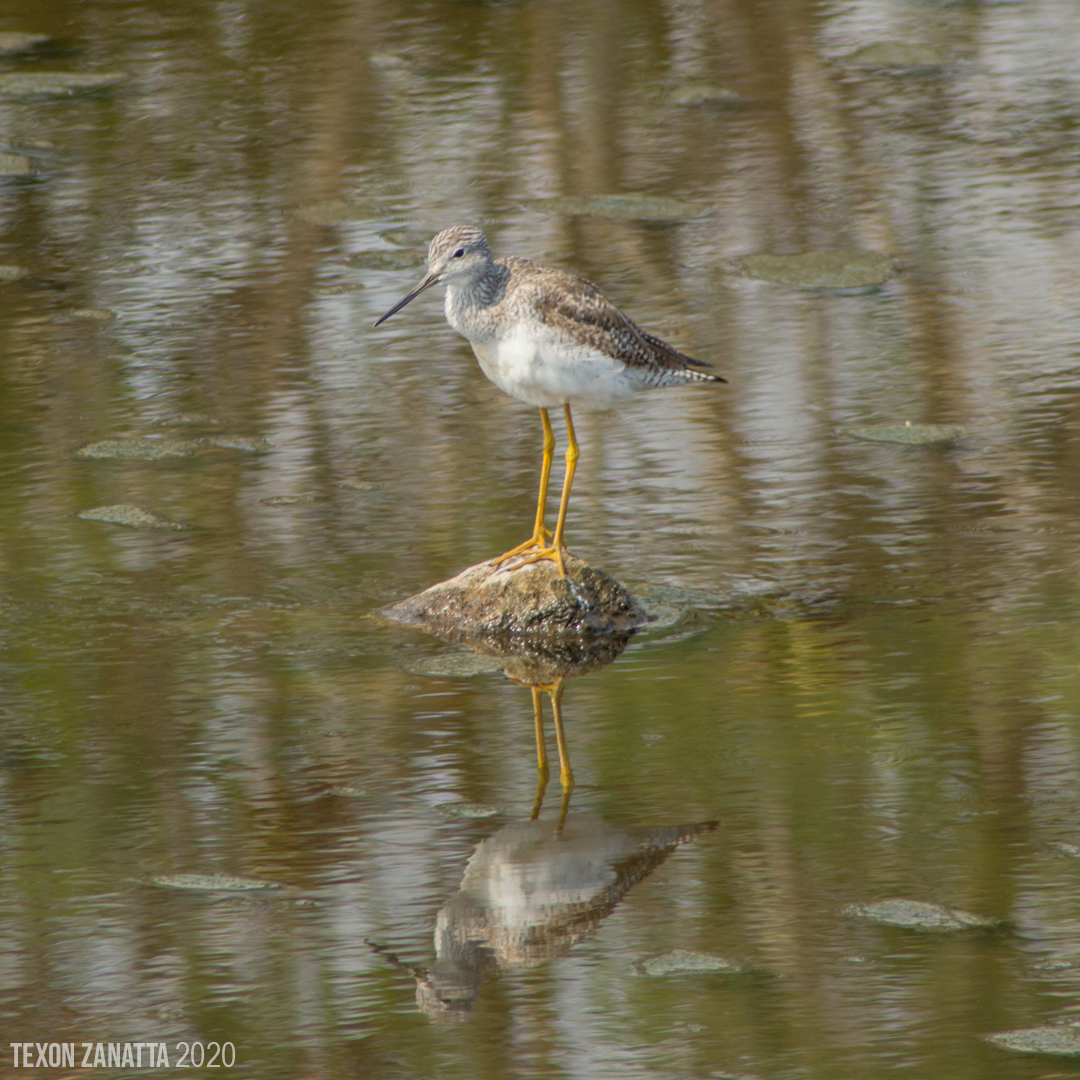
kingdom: Animalia
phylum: Chordata
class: Aves
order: Charadriiformes
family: Scolopacidae
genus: Tringa
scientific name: Tringa melanoleuca
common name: Greater yellowlegs
